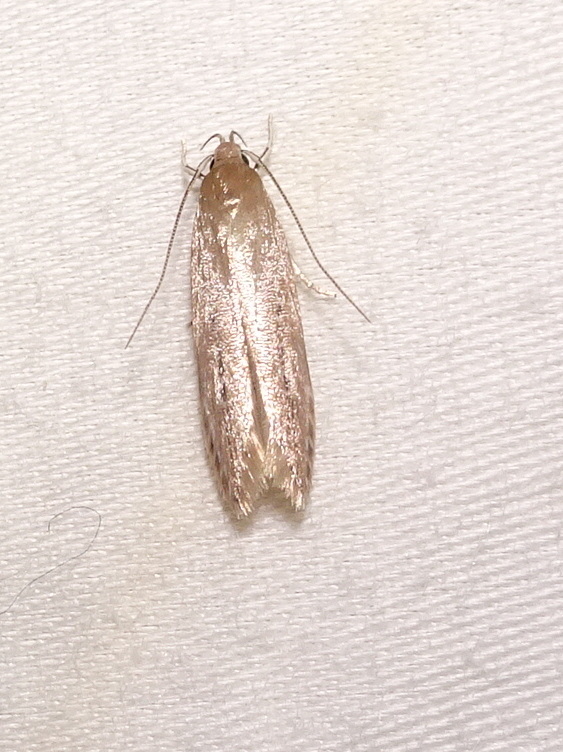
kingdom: Animalia
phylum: Arthropoda
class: Insecta
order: Lepidoptera
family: Cosmopterigidae
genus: Limnaecia
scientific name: Limnaecia phragmitella
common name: Bulrush cosmet
